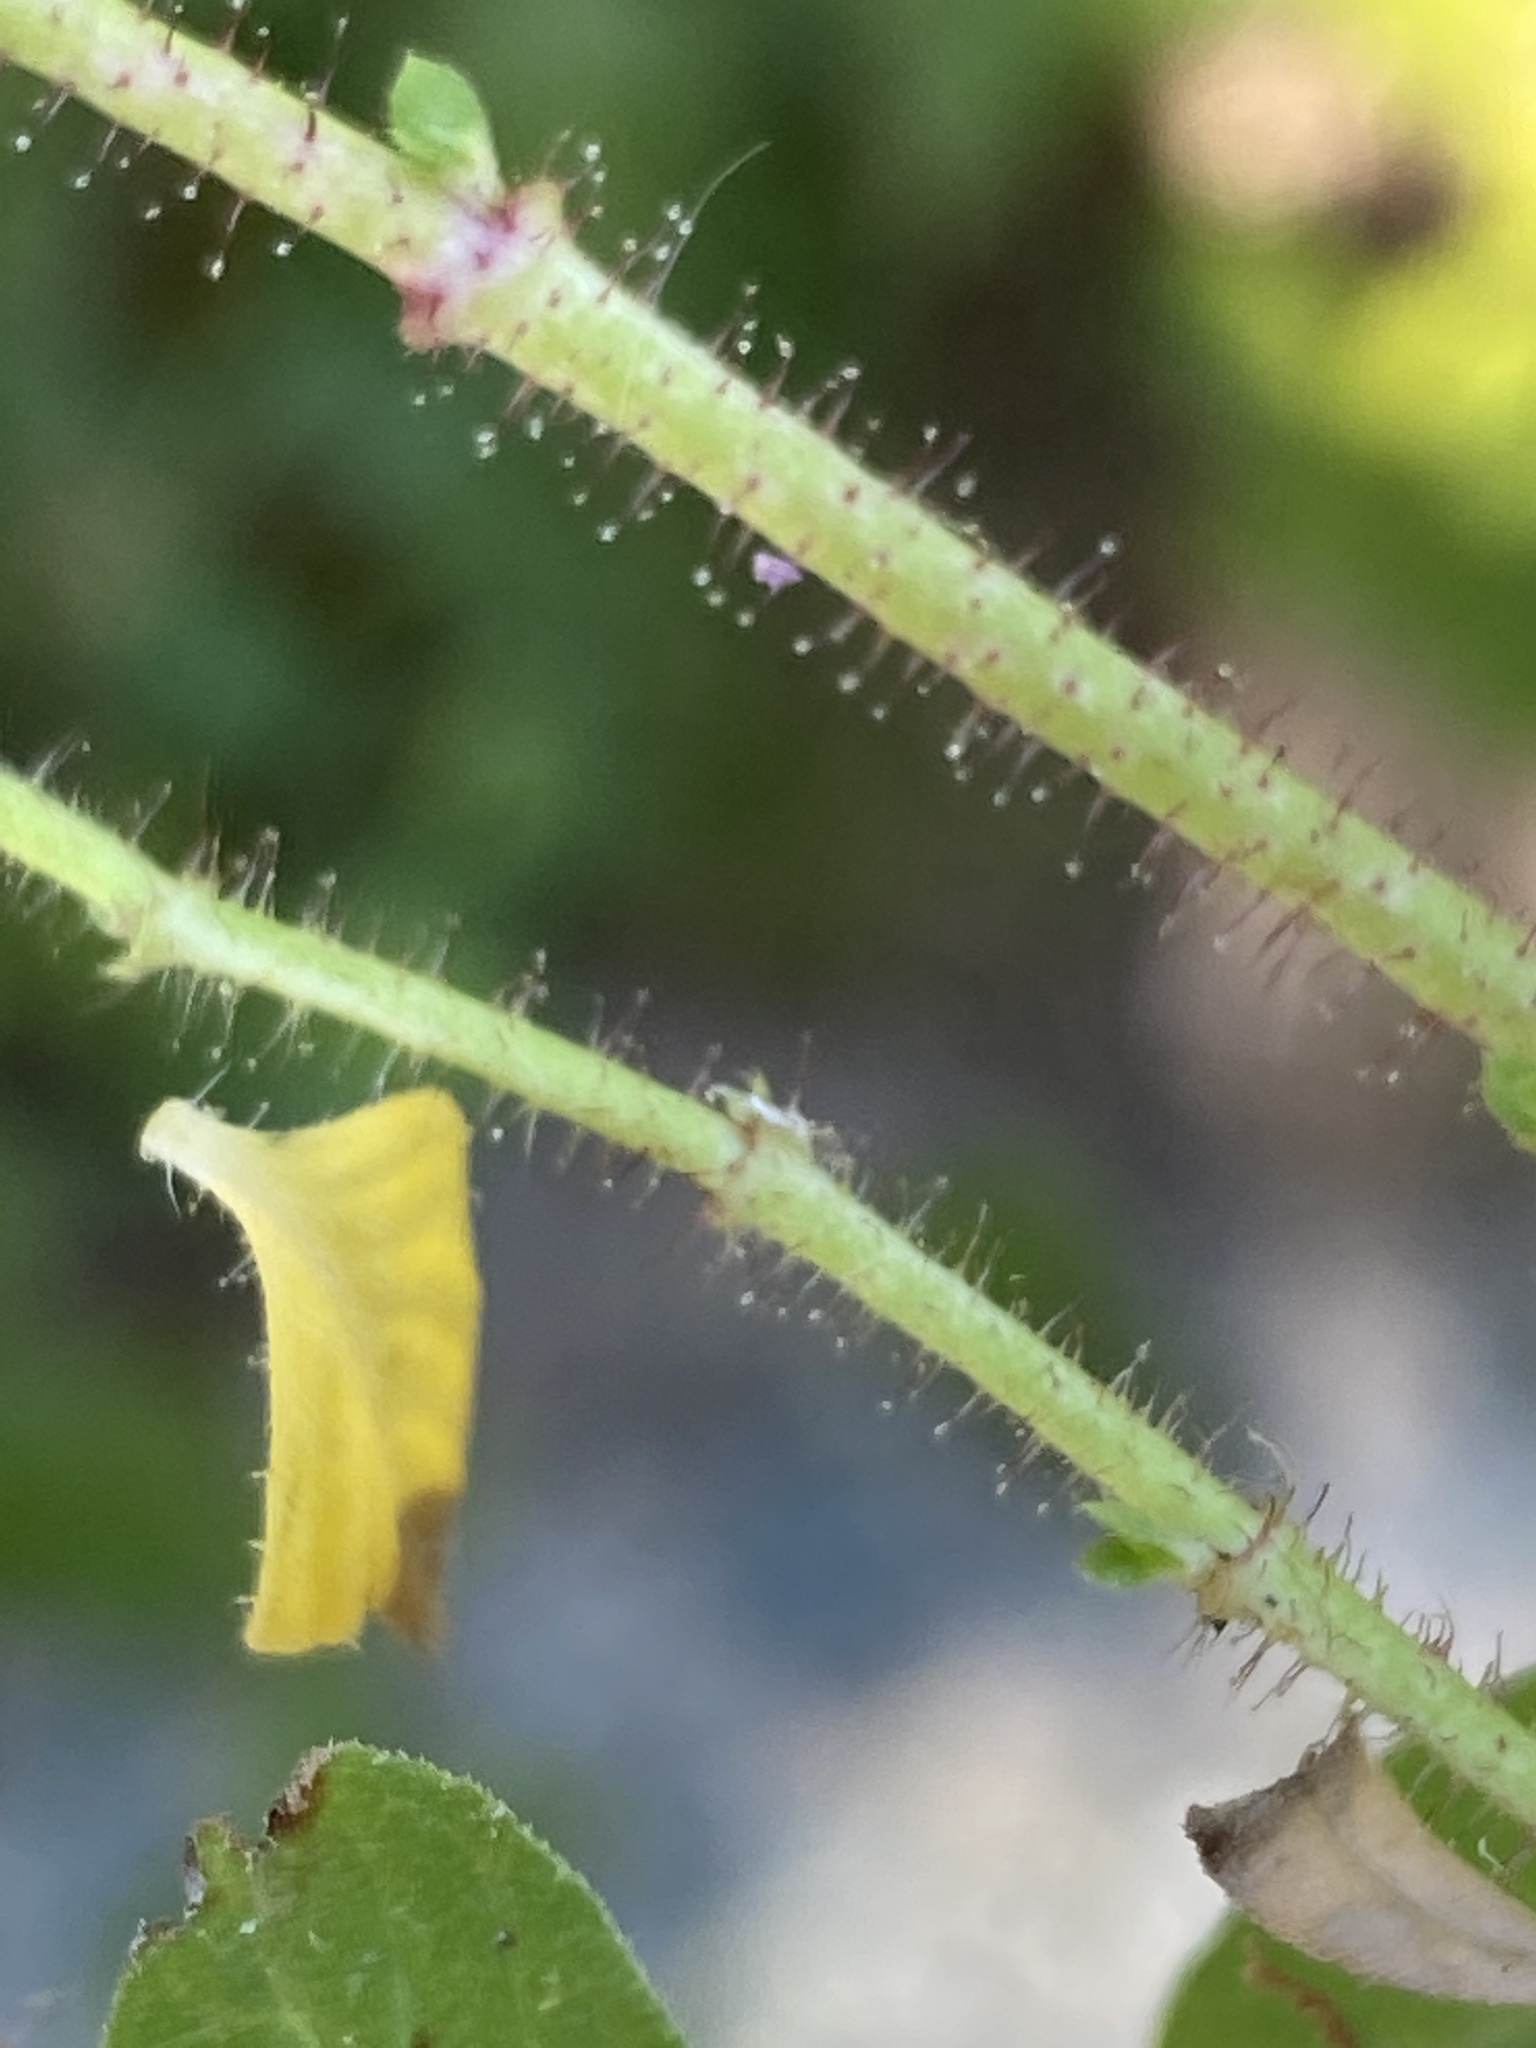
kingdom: Plantae
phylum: Tracheophyta
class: Magnoliopsida
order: Myrtales
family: Lythraceae
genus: Cuphea
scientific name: Cuphea carthagenensis
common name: Colombian waxweed
